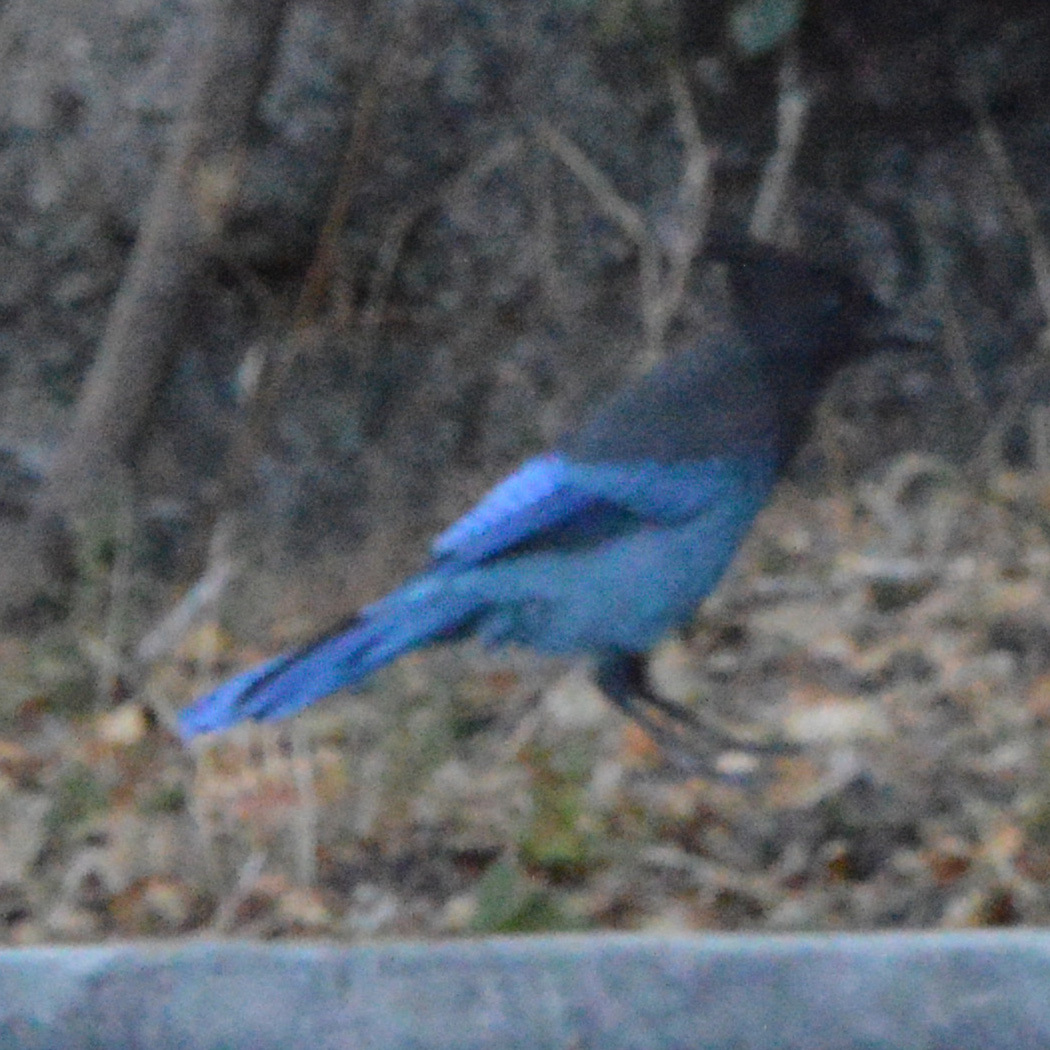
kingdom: Animalia
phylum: Chordata
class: Aves
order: Passeriformes
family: Corvidae
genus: Cyanocitta
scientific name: Cyanocitta stelleri
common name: Steller's jay
